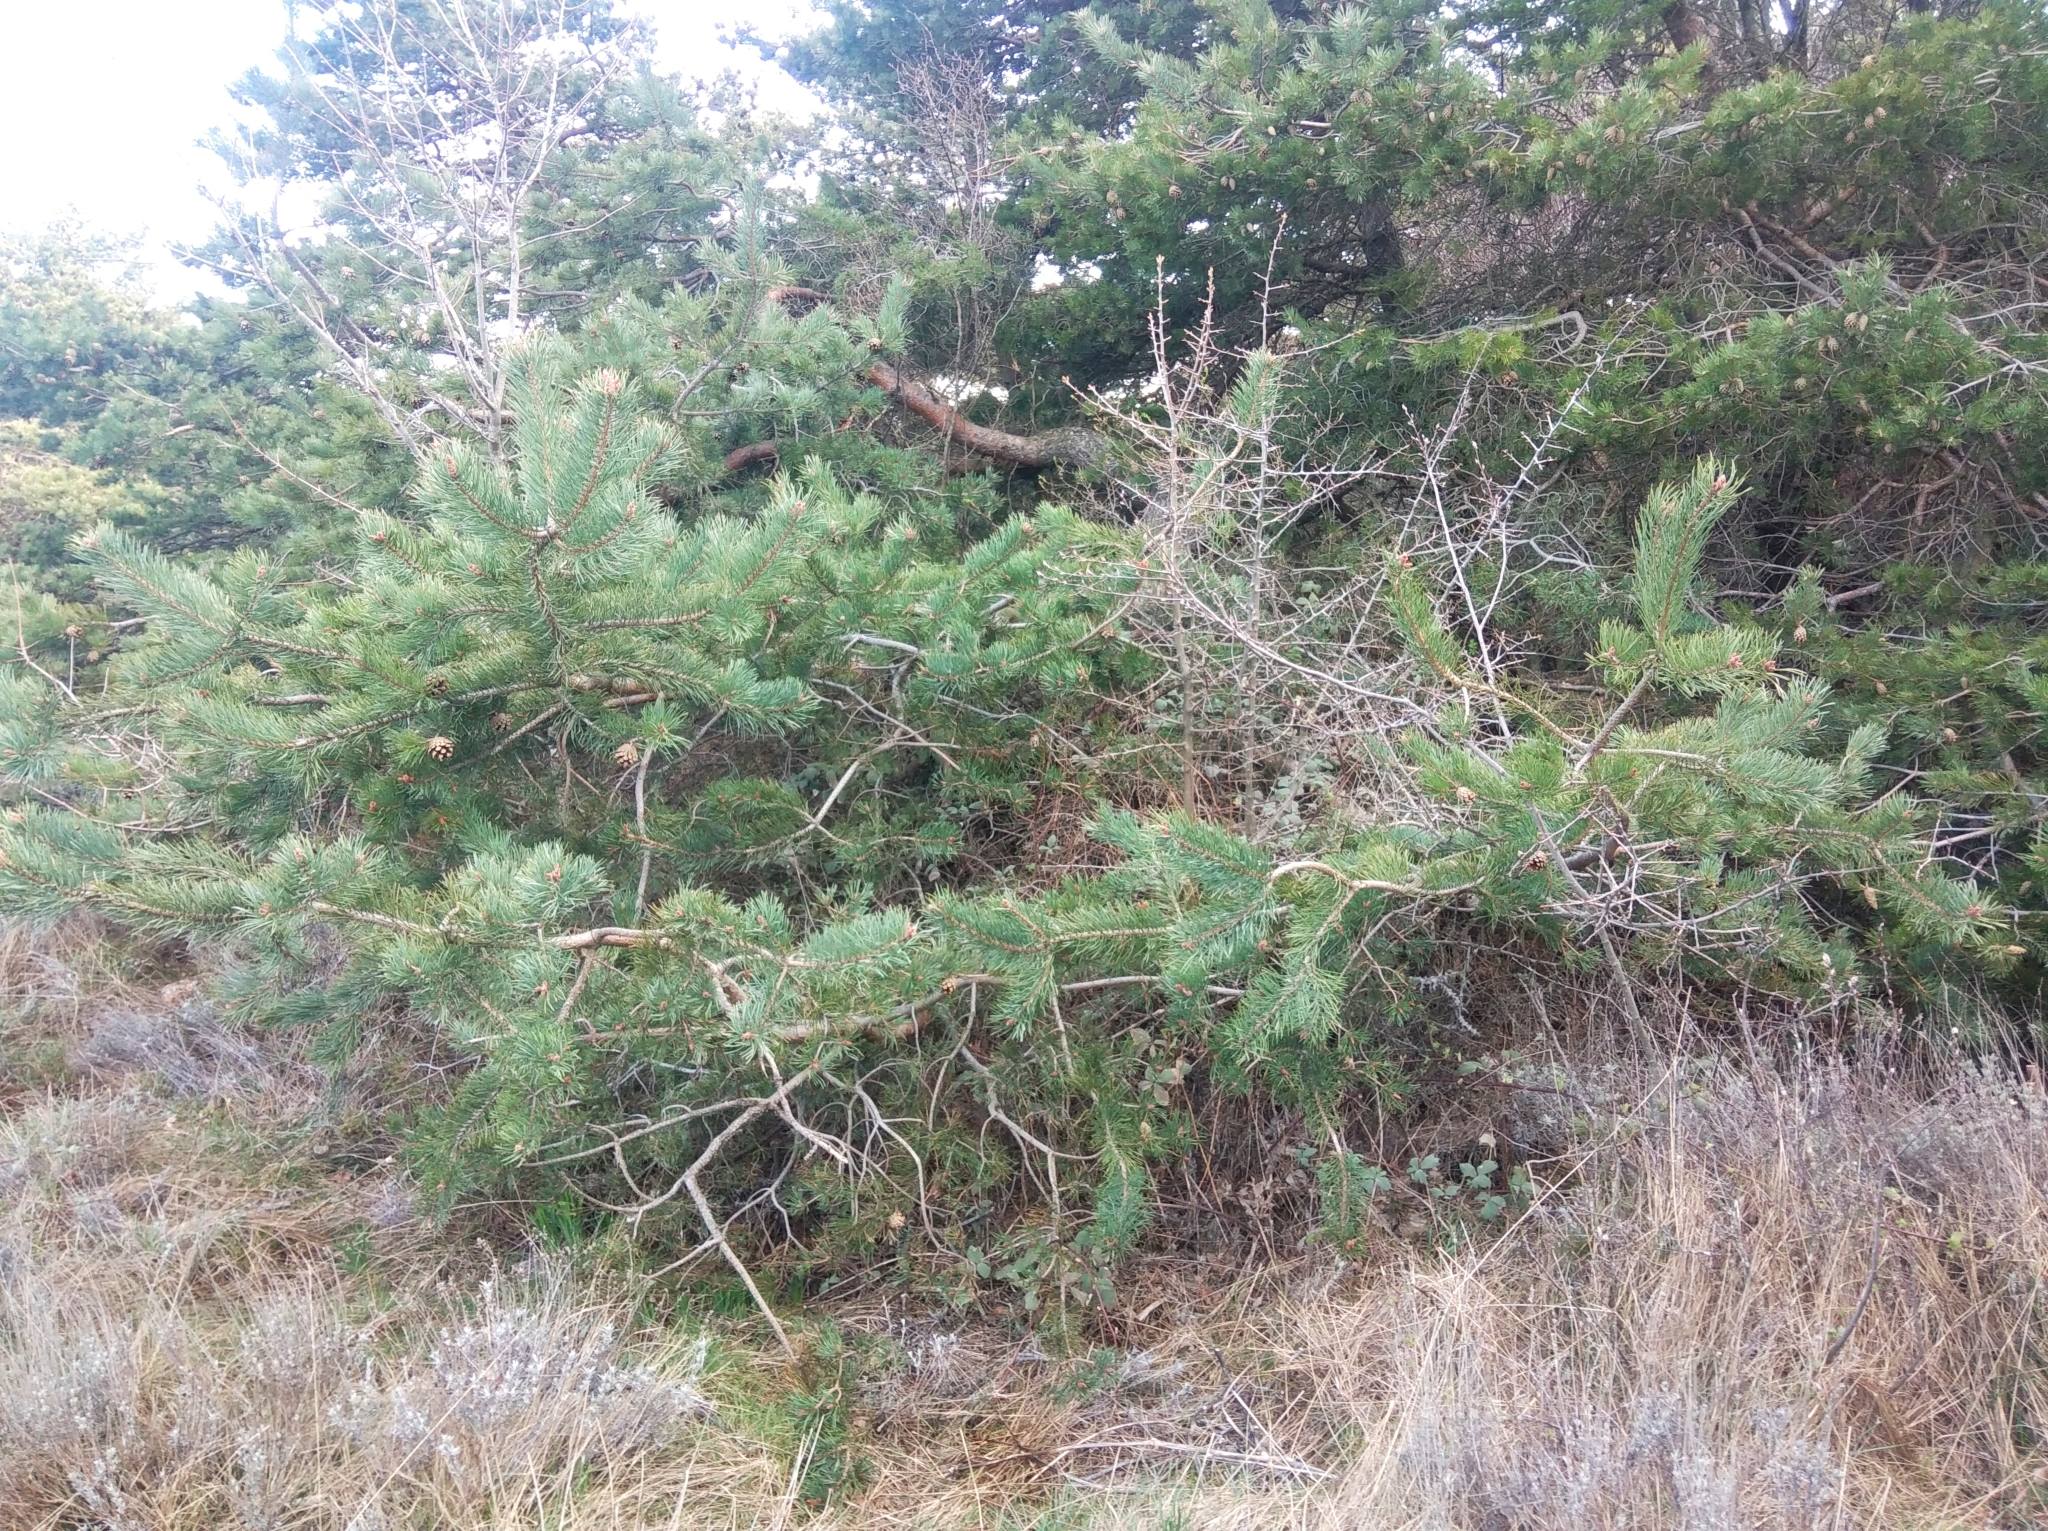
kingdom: Plantae
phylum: Tracheophyta
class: Pinopsida
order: Pinales
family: Pinaceae
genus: Pinus
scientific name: Pinus sylvestris
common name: Scots pine
